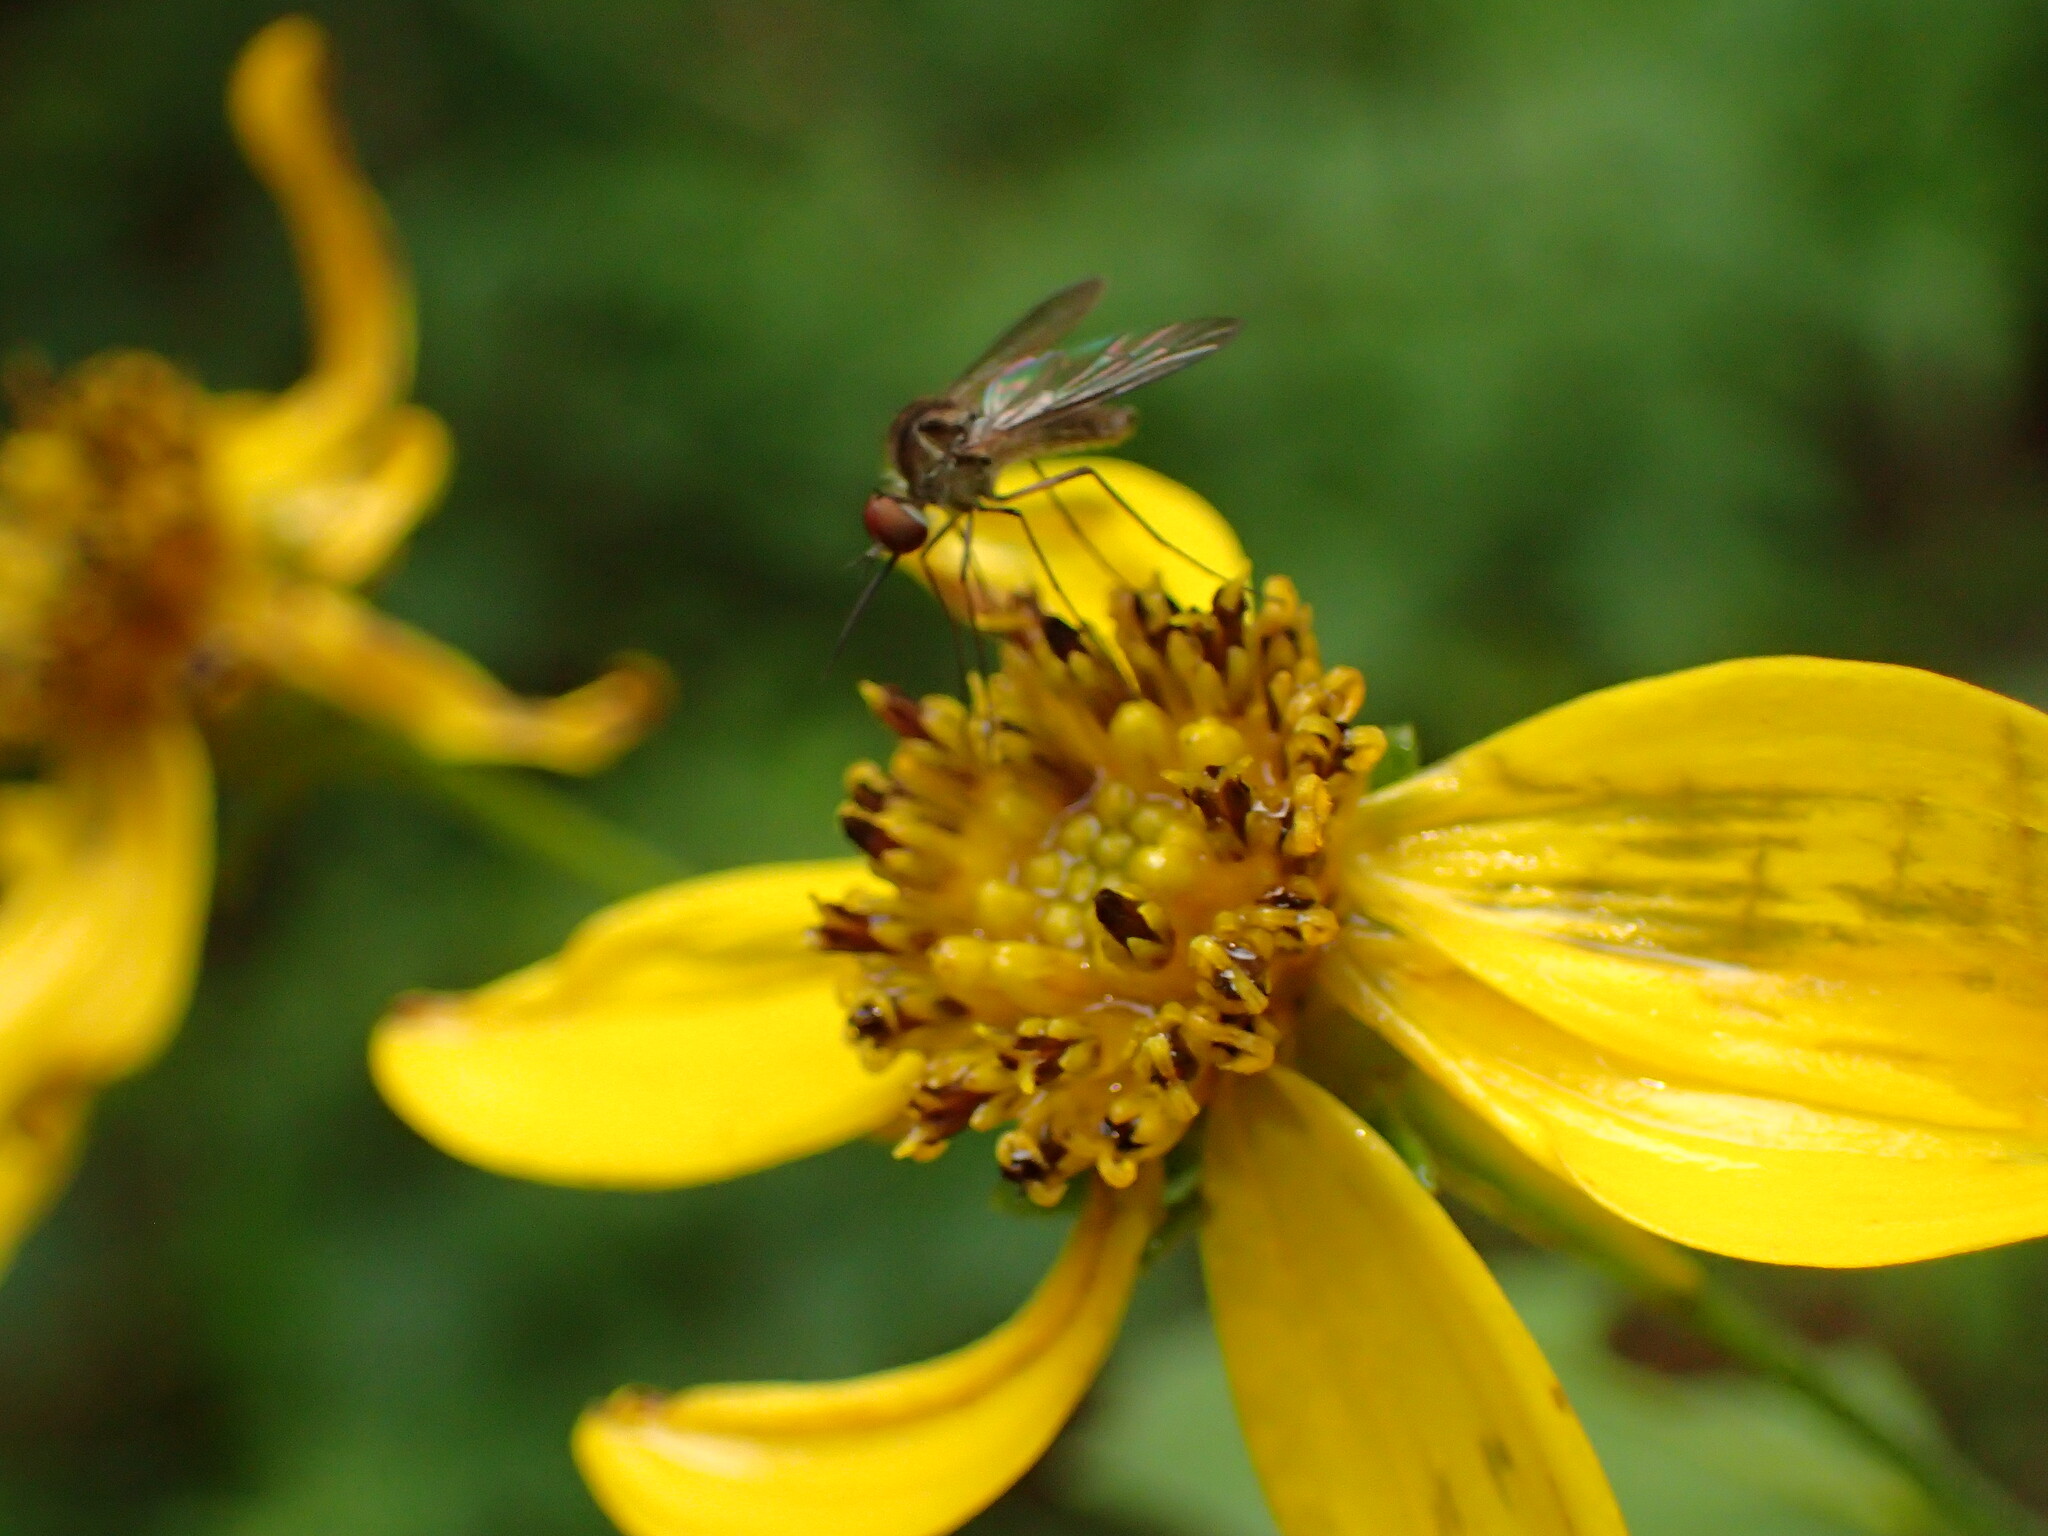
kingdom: Plantae
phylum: Tracheophyta
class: Magnoliopsida
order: Asterales
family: Asteraceae
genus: Coreopsis
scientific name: Coreopsis major
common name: Forest tickseed
